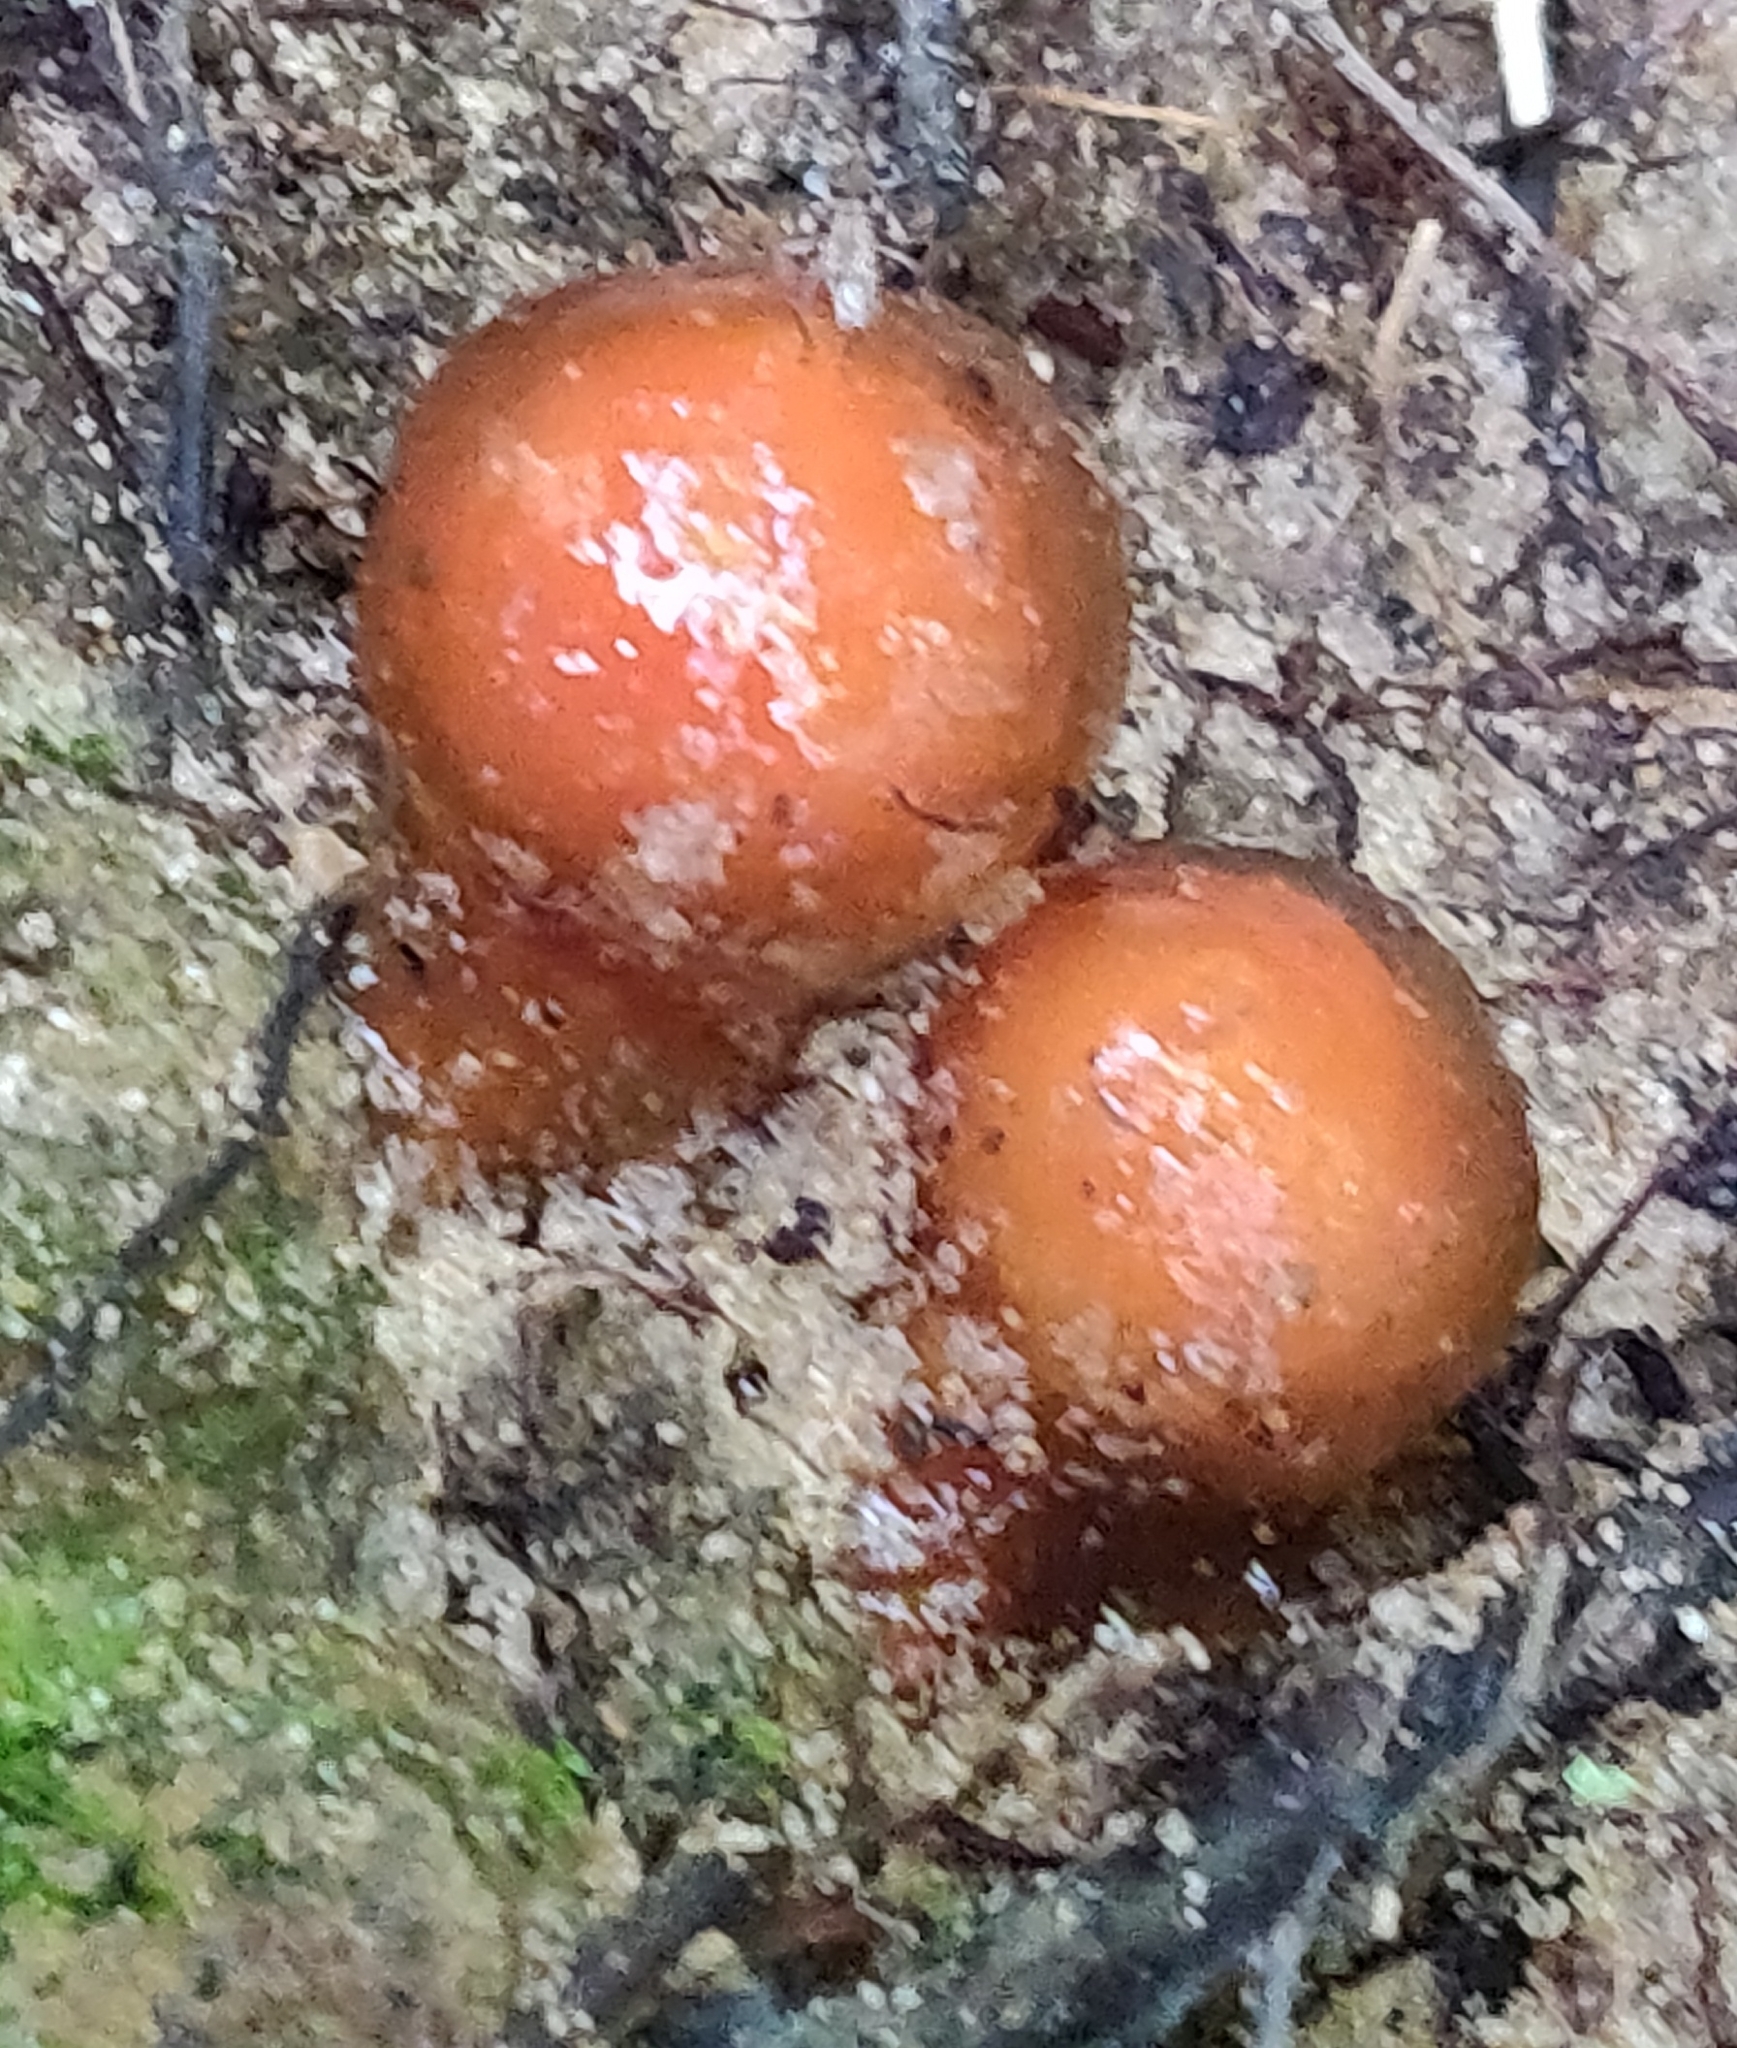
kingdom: Fungi
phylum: Basidiomycota
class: Agaricomycetes
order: Boletales
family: Calostomataceae
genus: Calostoma
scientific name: Calostoma cinnabarinum
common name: Stalked puffball-in-aspic
